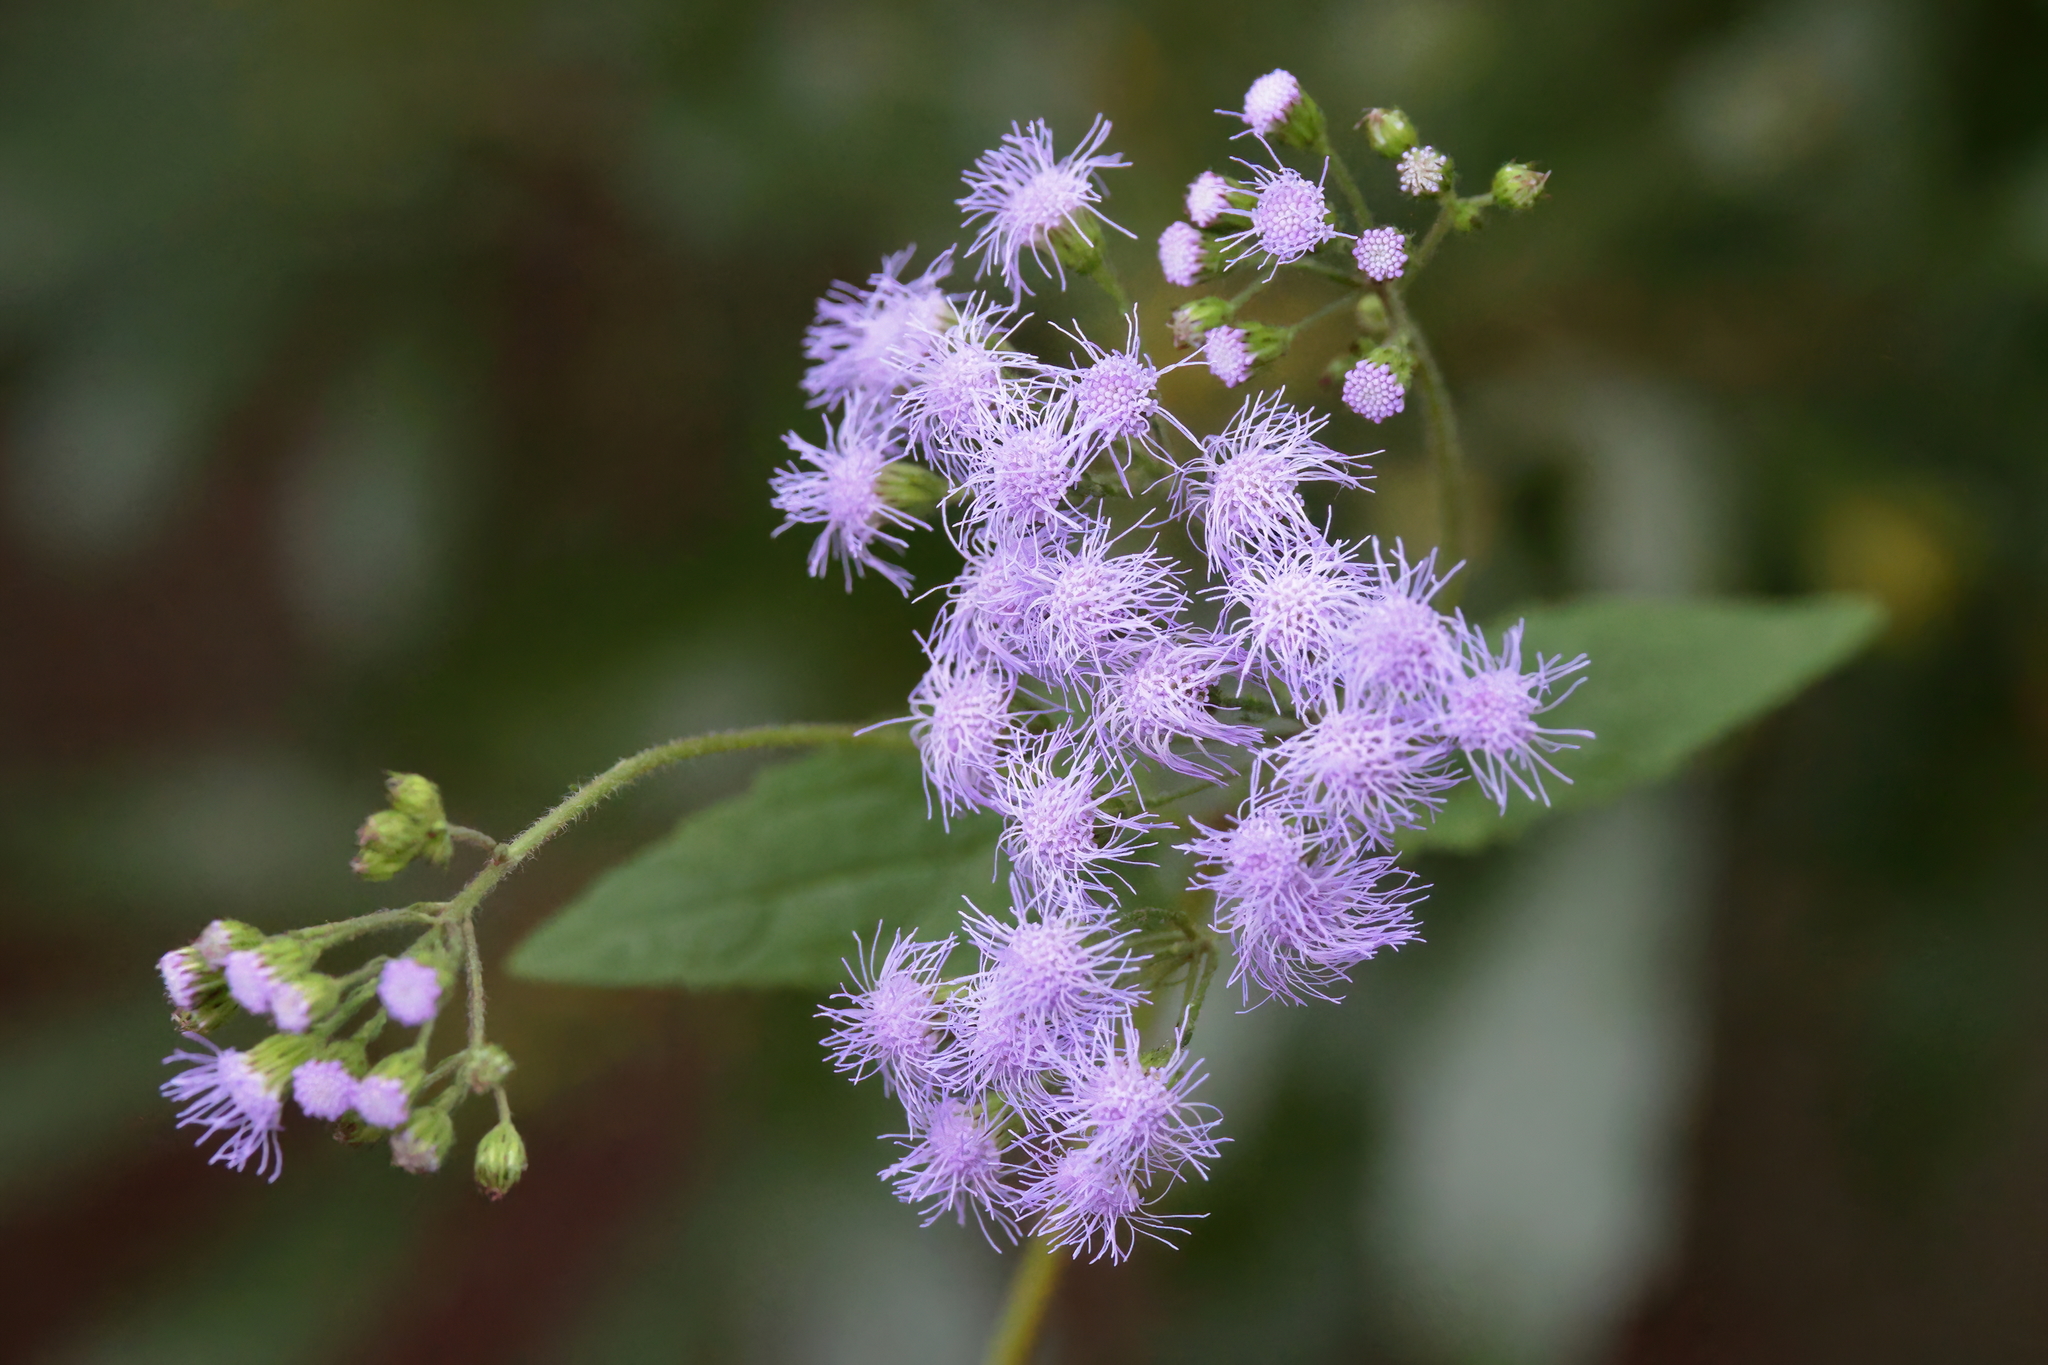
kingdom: Plantae
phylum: Tracheophyta
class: Magnoliopsida
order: Asterales
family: Asteraceae
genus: Conoclinium
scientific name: Conoclinium coelestinum
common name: Blue mistflower
